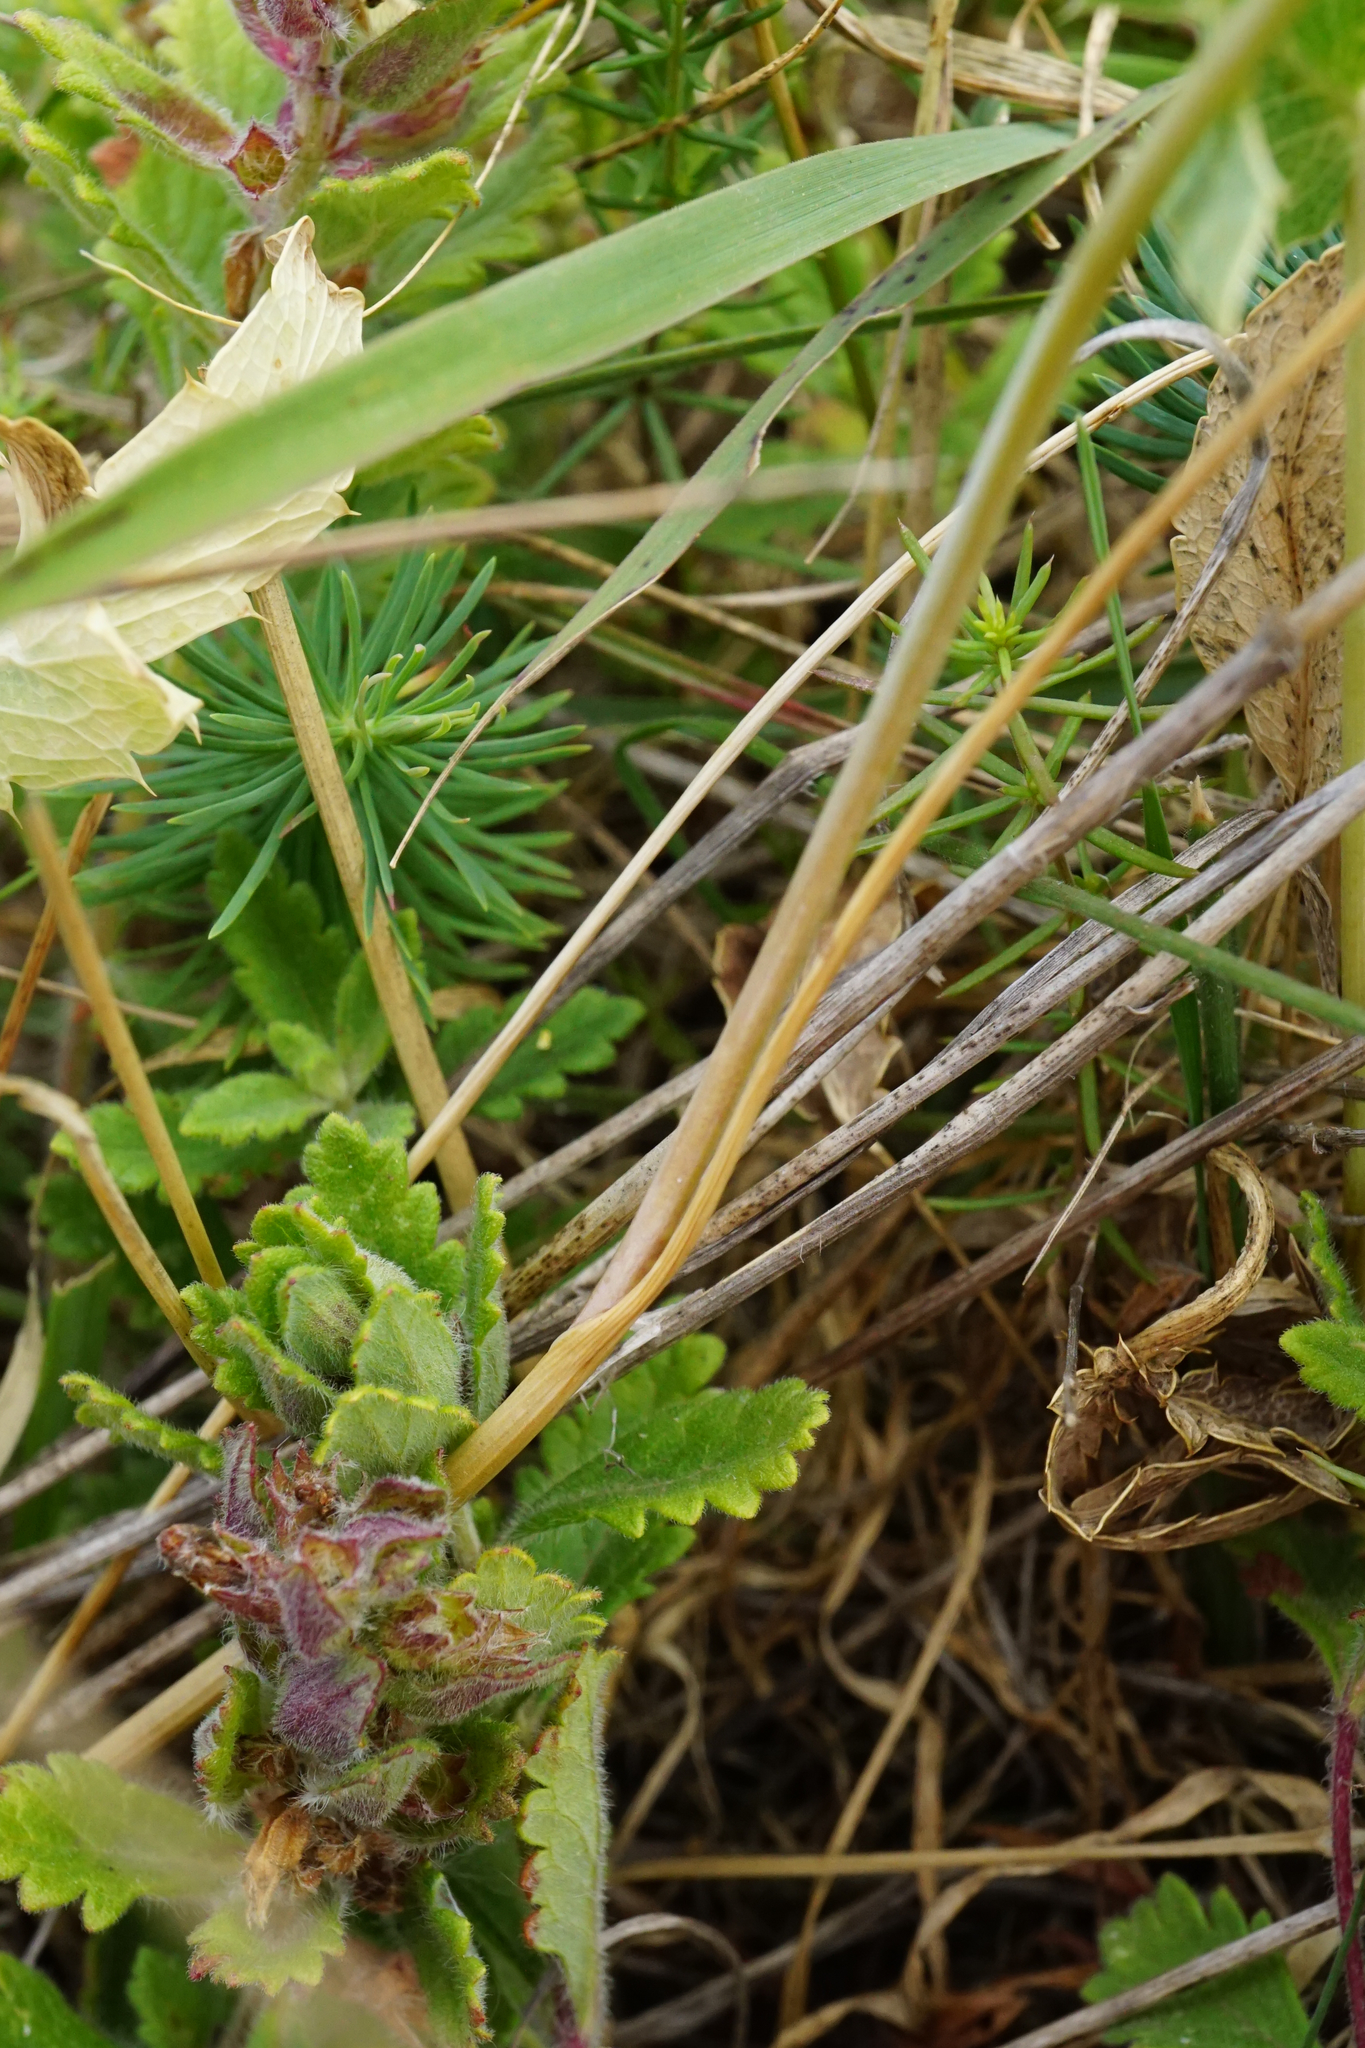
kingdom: Plantae
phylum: Tracheophyta
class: Liliopsida
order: Asparagales
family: Amaryllidaceae
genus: Allium
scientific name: Allium flavum
